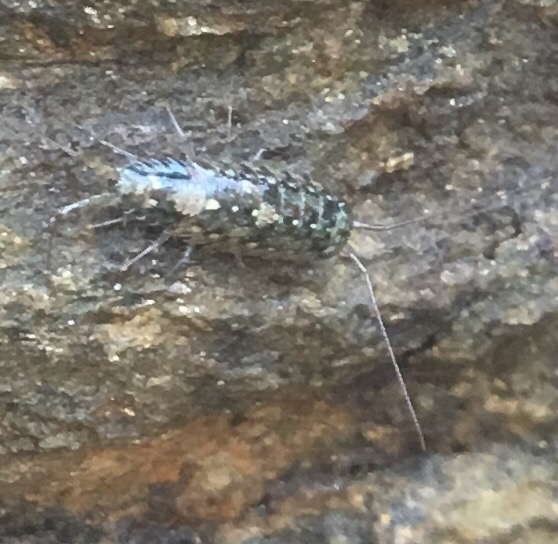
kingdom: Animalia
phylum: Arthropoda
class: Malacostraca
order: Isopoda
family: Ligiidae
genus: Ligia
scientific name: Ligia exotica
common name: Wharf roach
